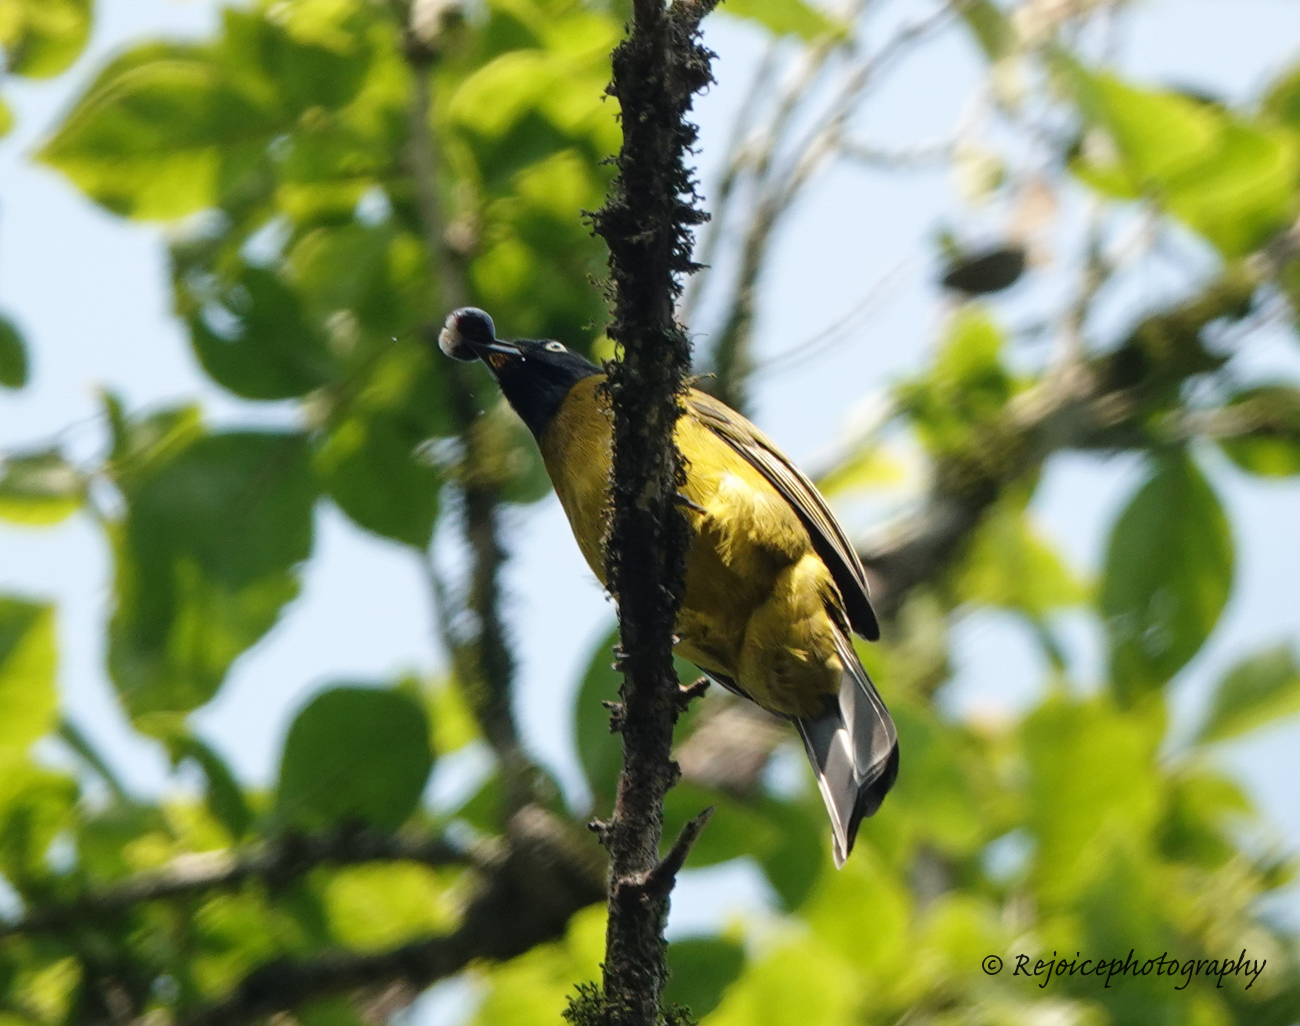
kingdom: Animalia
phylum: Chordata
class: Aves
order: Passeriformes
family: Pycnonotidae
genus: Pycnonotus
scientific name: Pycnonotus flaviventris
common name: Black-crested bulbul
